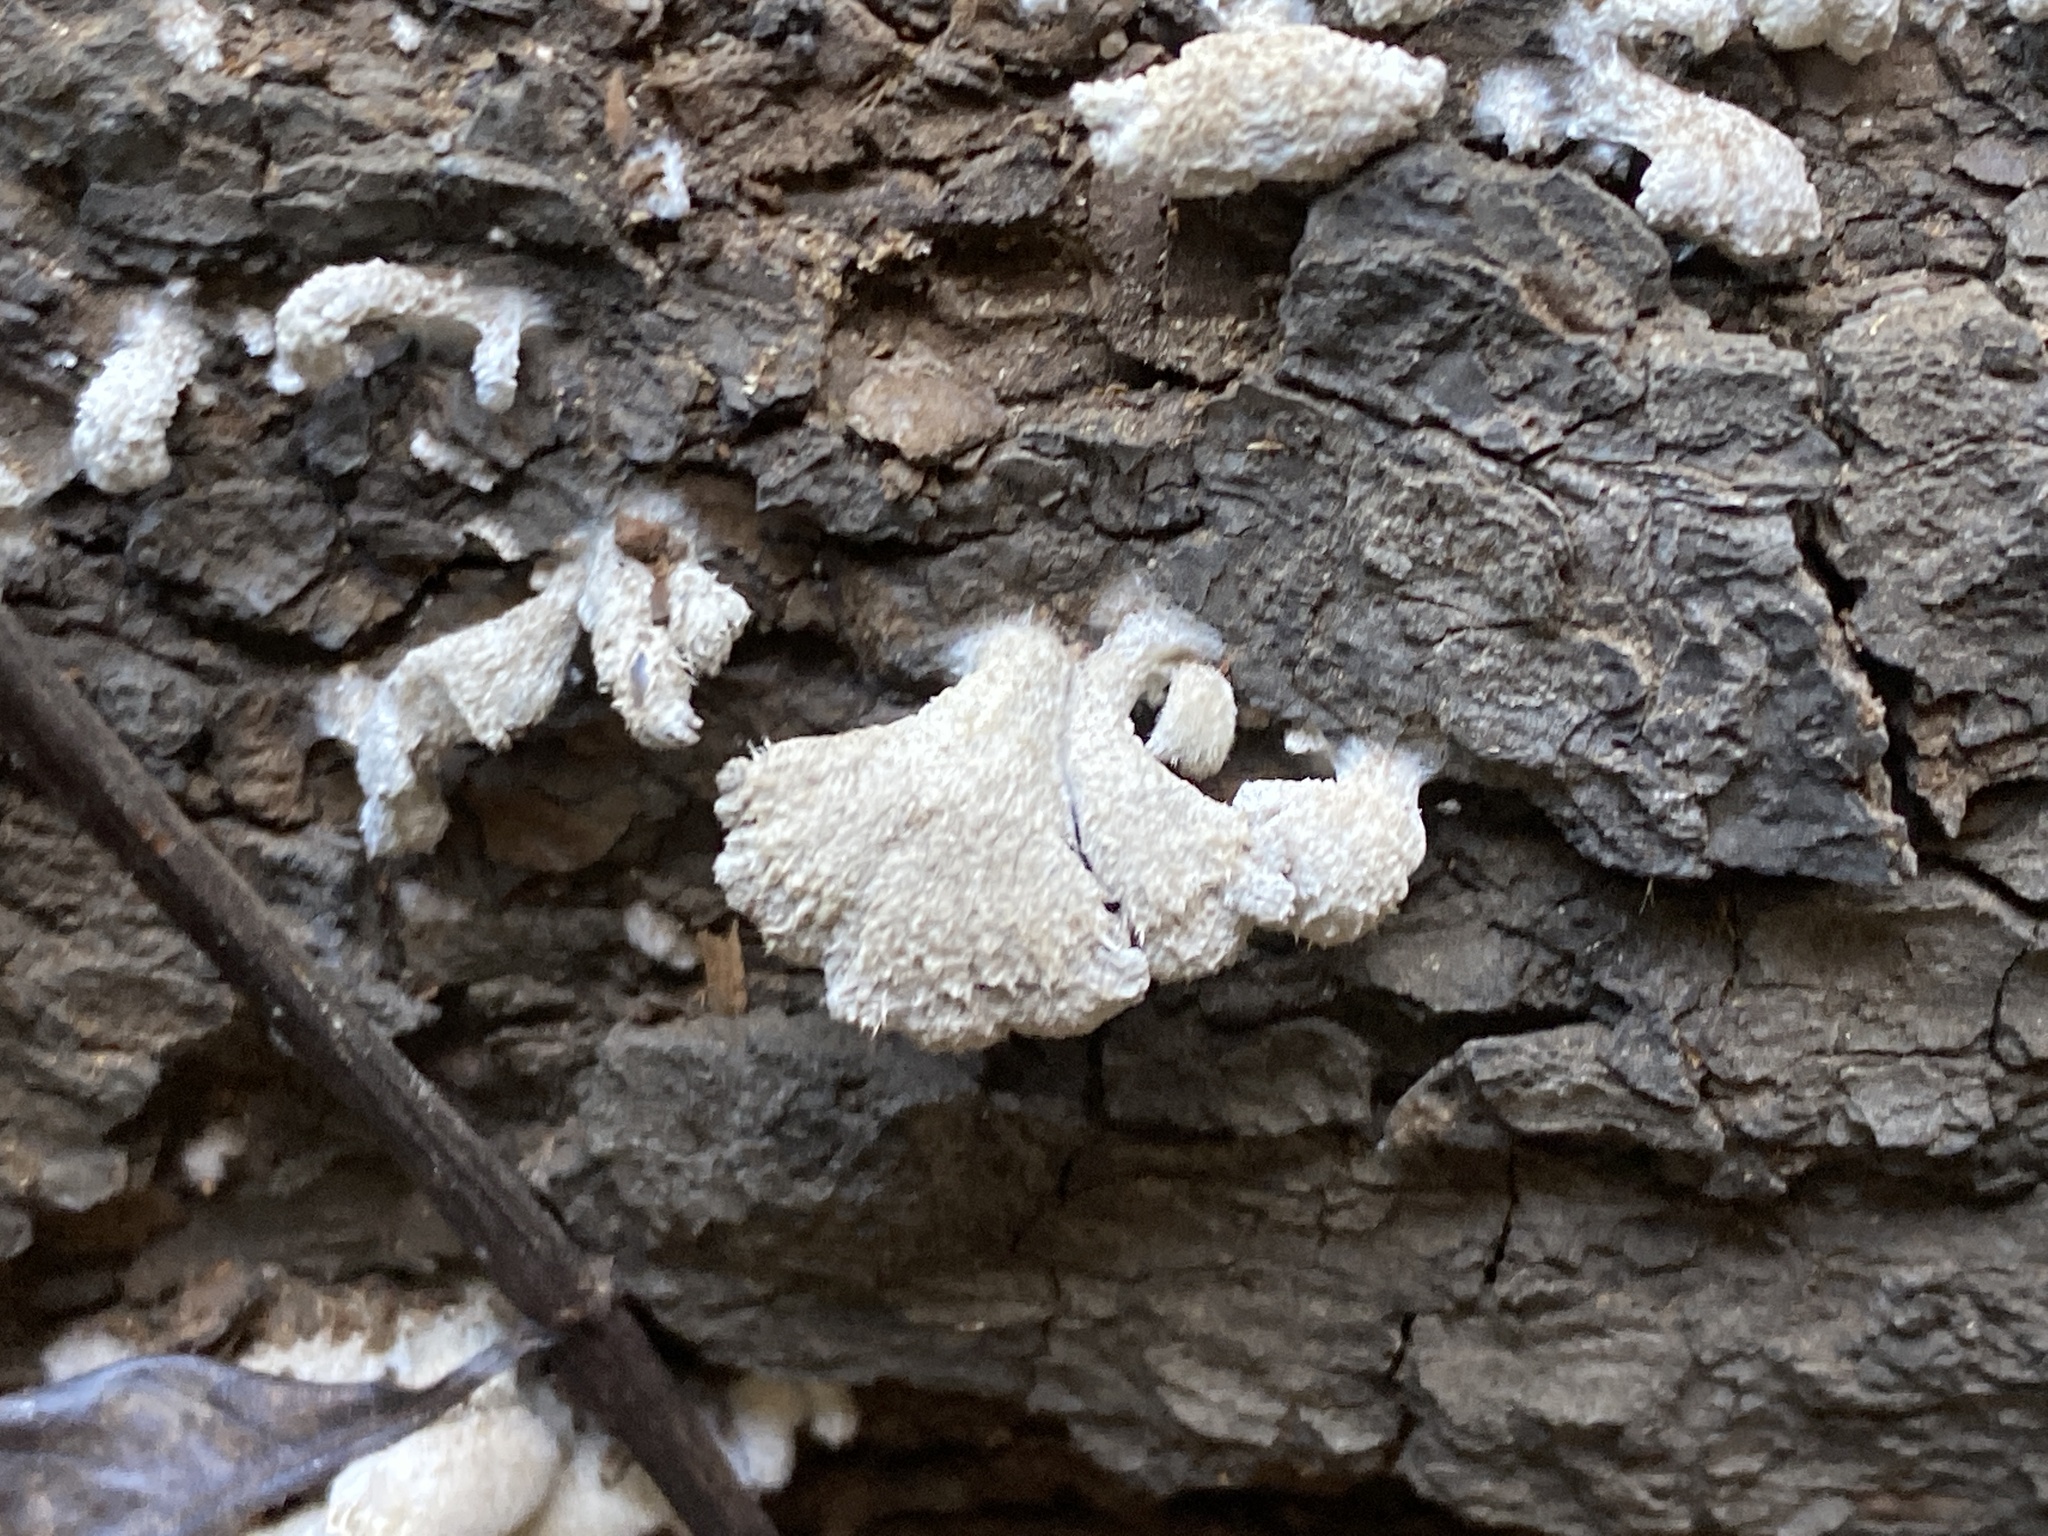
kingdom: Fungi
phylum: Basidiomycota
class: Agaricomycetes
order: Agaricales
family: Schizophyllaceae
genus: Schizophyllum
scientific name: Schizophyllum commune
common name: Common porecrust
